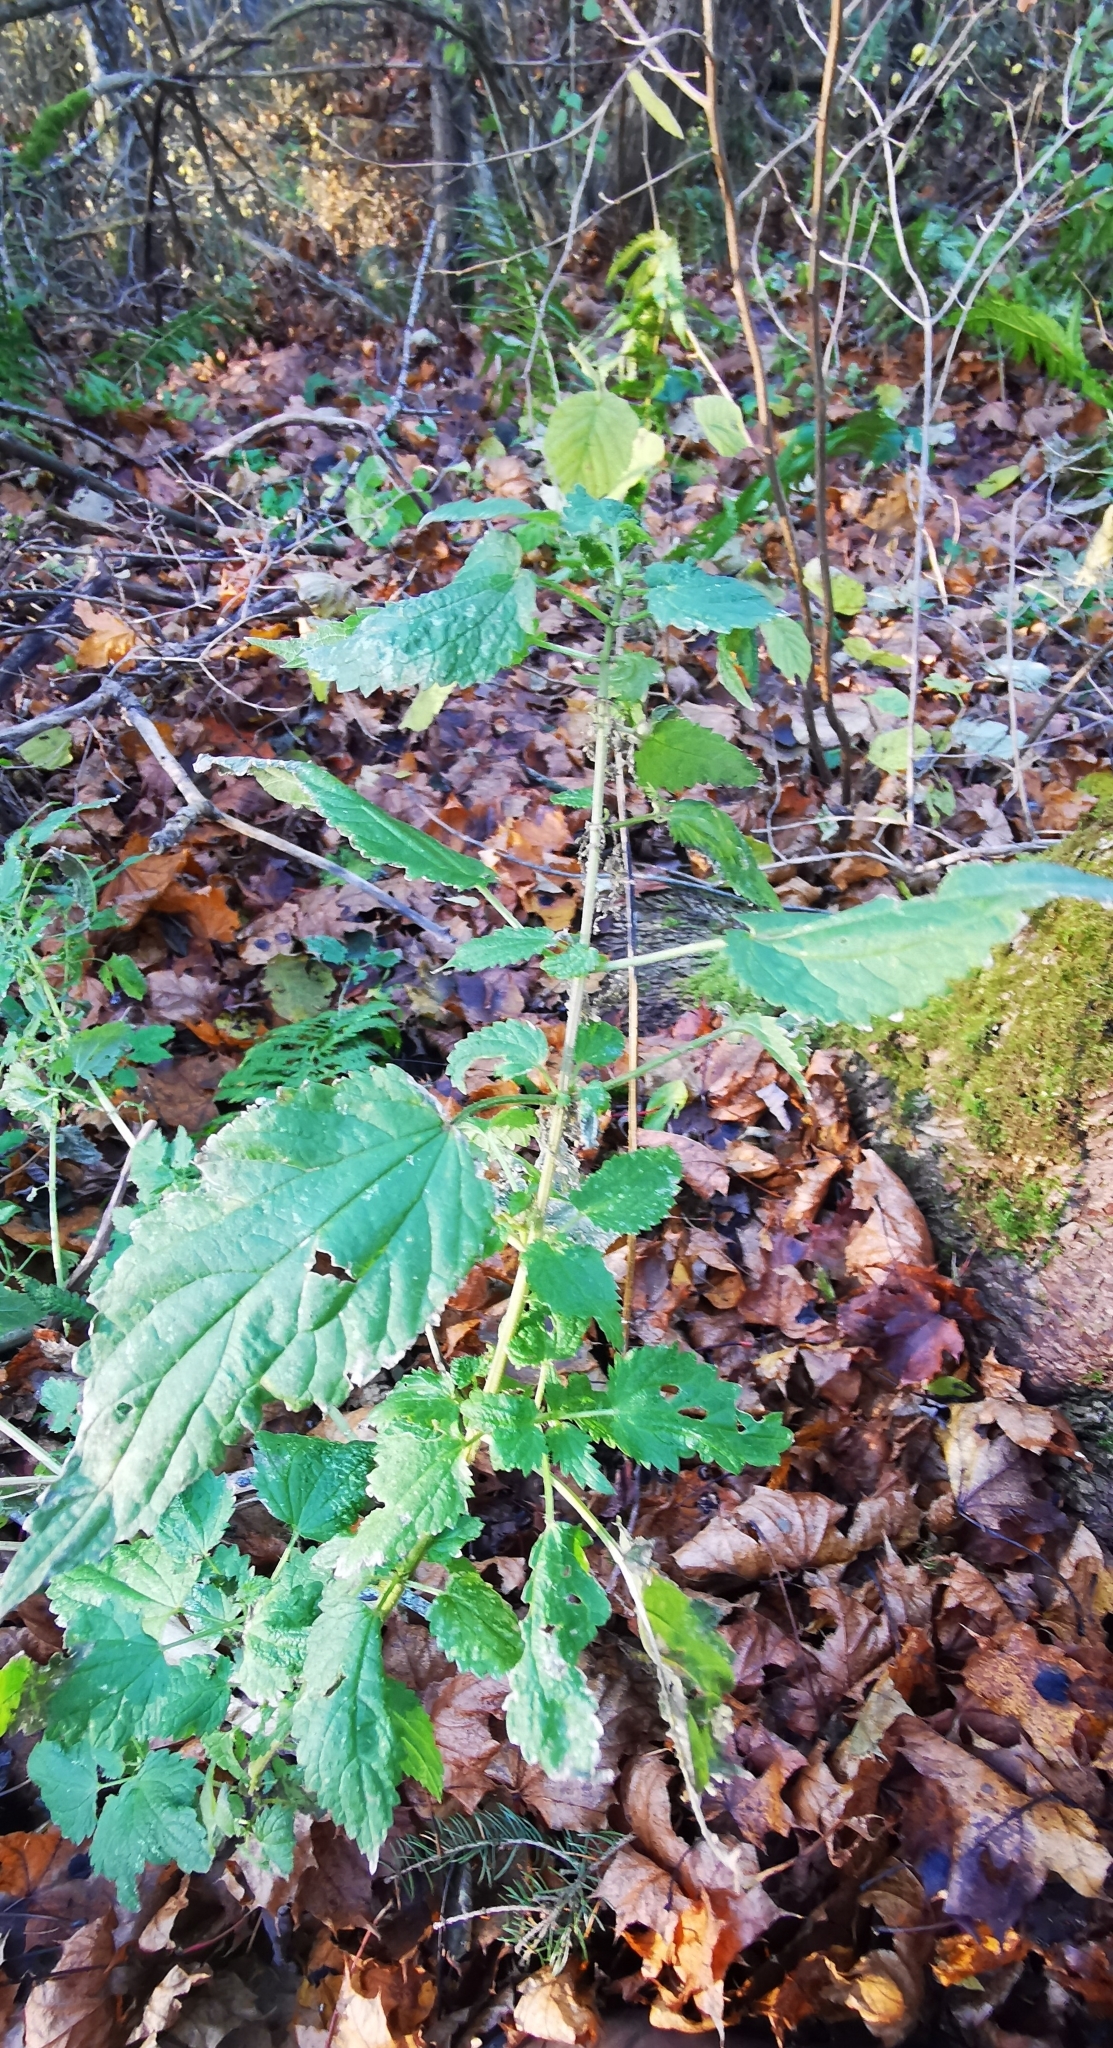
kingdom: Plantae
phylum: Tracheophyta
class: Magnoliopsida
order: Rosales
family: Urticaceae
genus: Urtica
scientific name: Urtica dioica
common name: Common nettle
